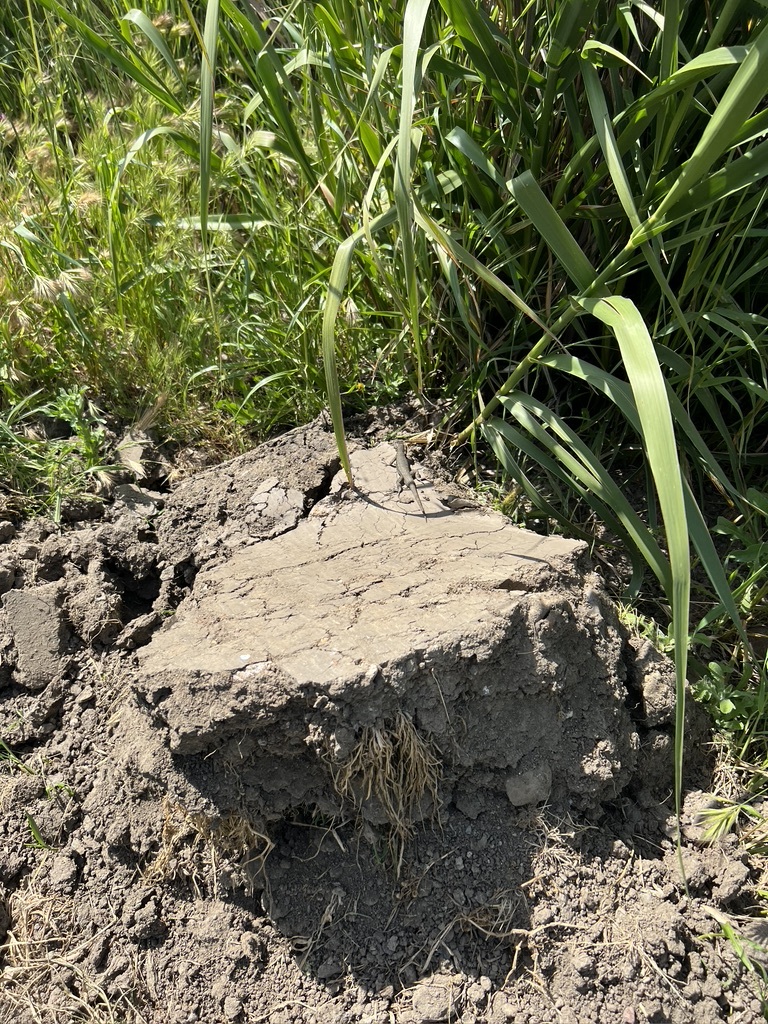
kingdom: Animalia
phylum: Chordata
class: Squamata
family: Phrynosomatidae
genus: Sceloporus
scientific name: Sceloporus occidentalis
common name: Western fence lizard
